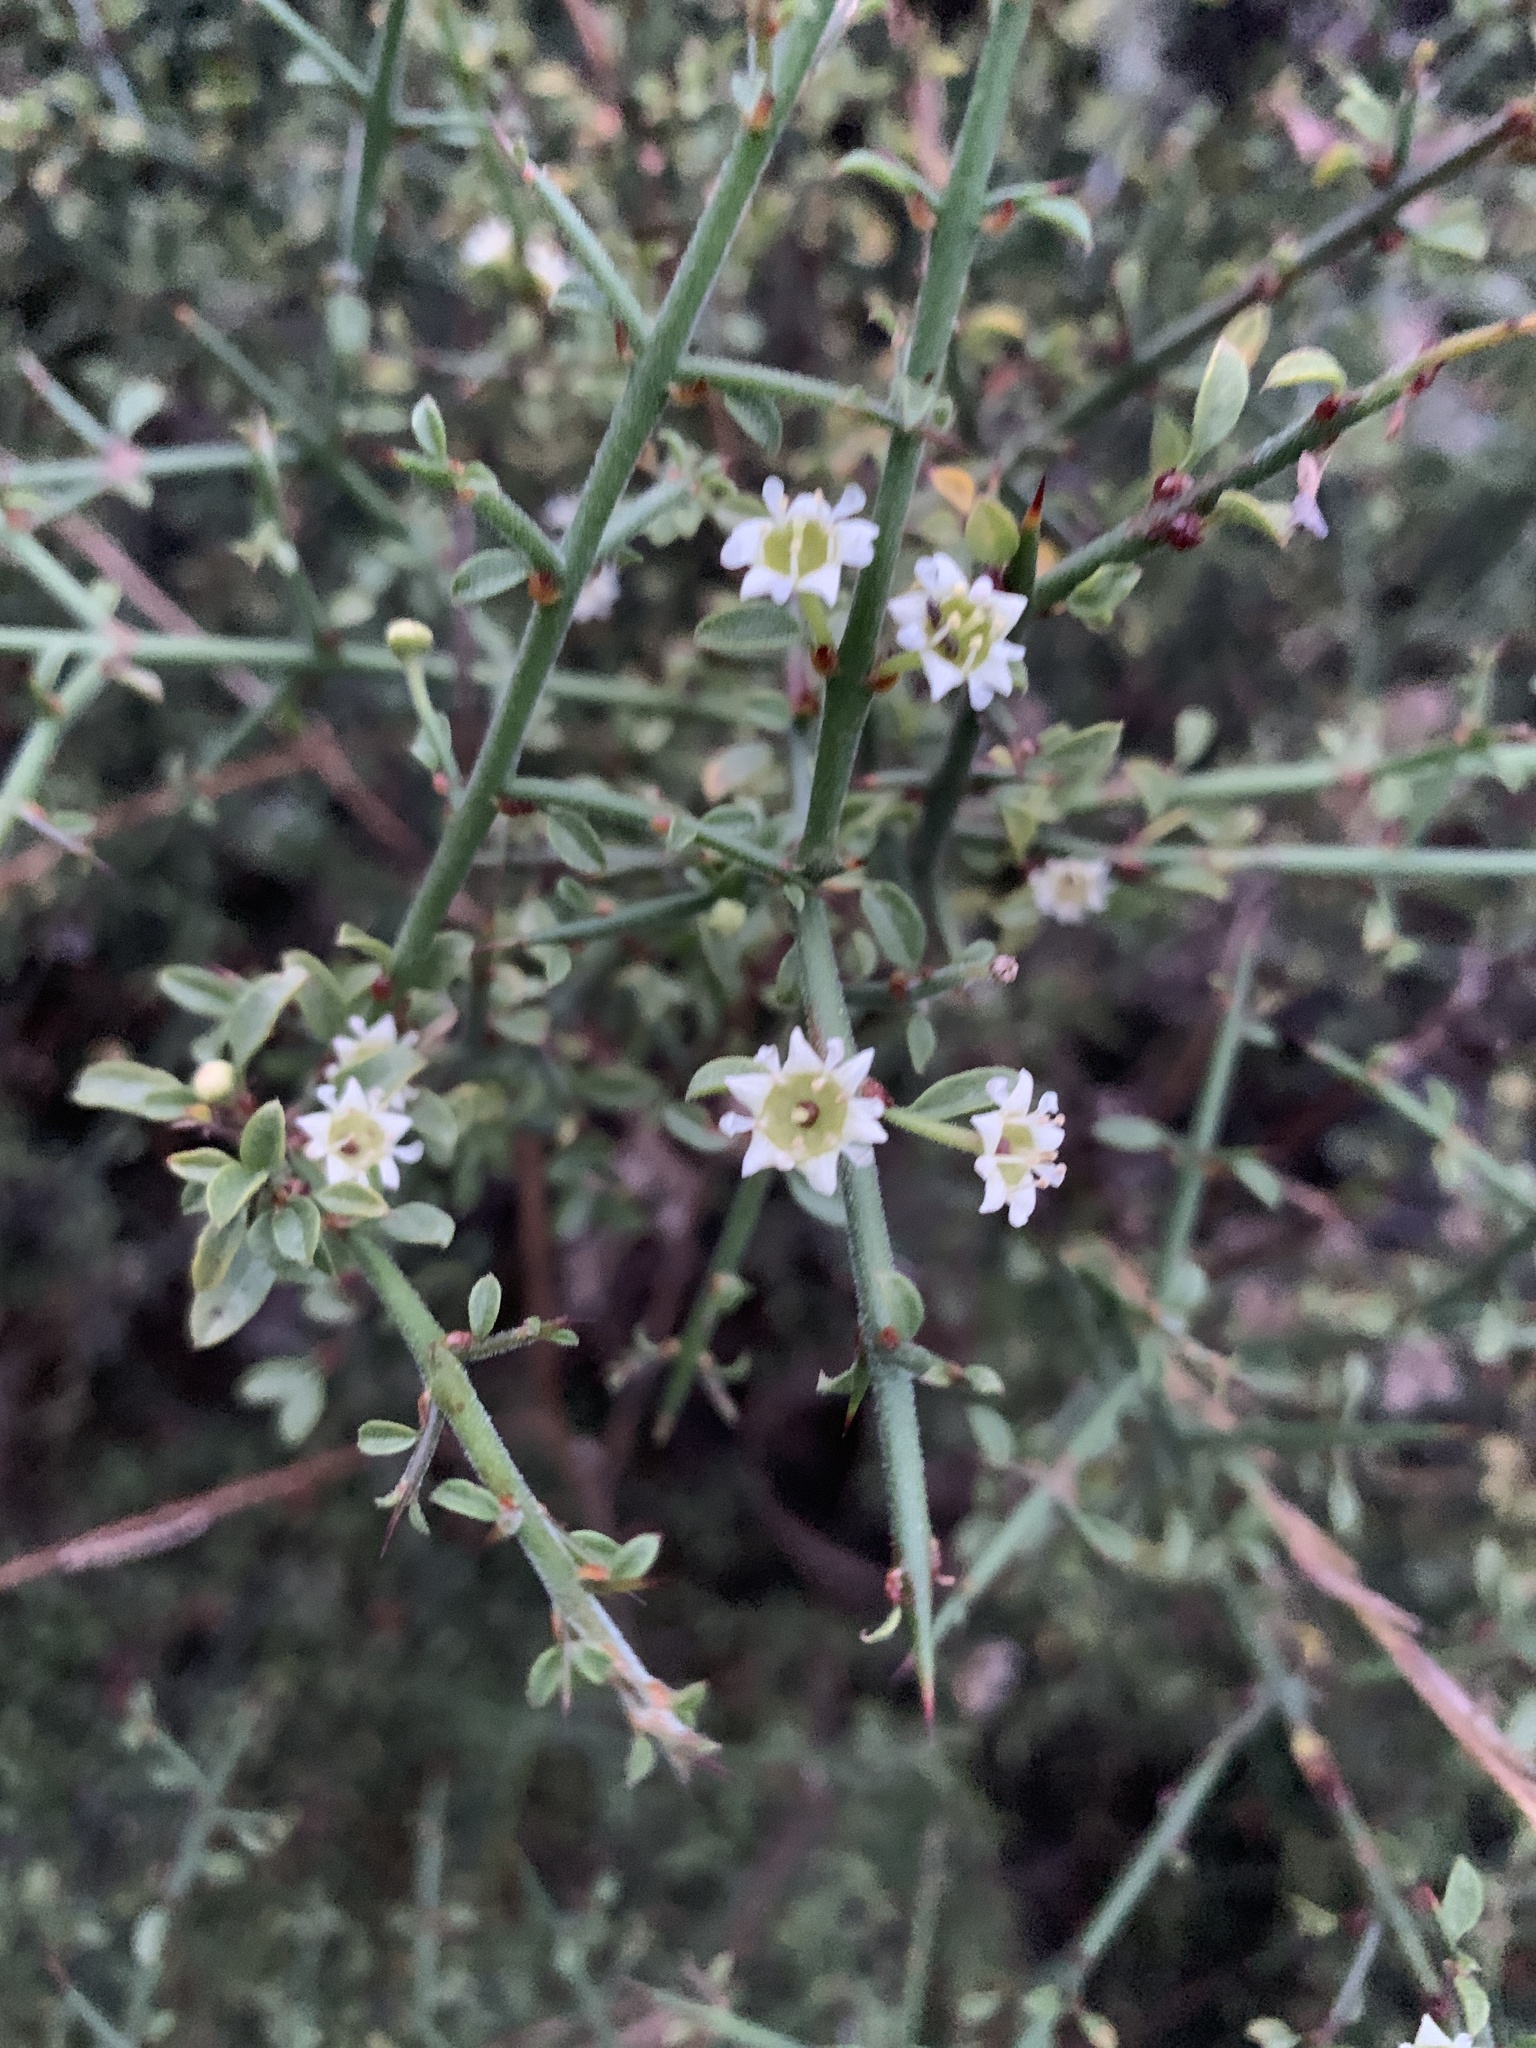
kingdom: Plantae
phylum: Tracheophyta
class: Magnoliopsida
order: Rosales
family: Rhamnaceae
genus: Adolphia
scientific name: Adolphia californica
